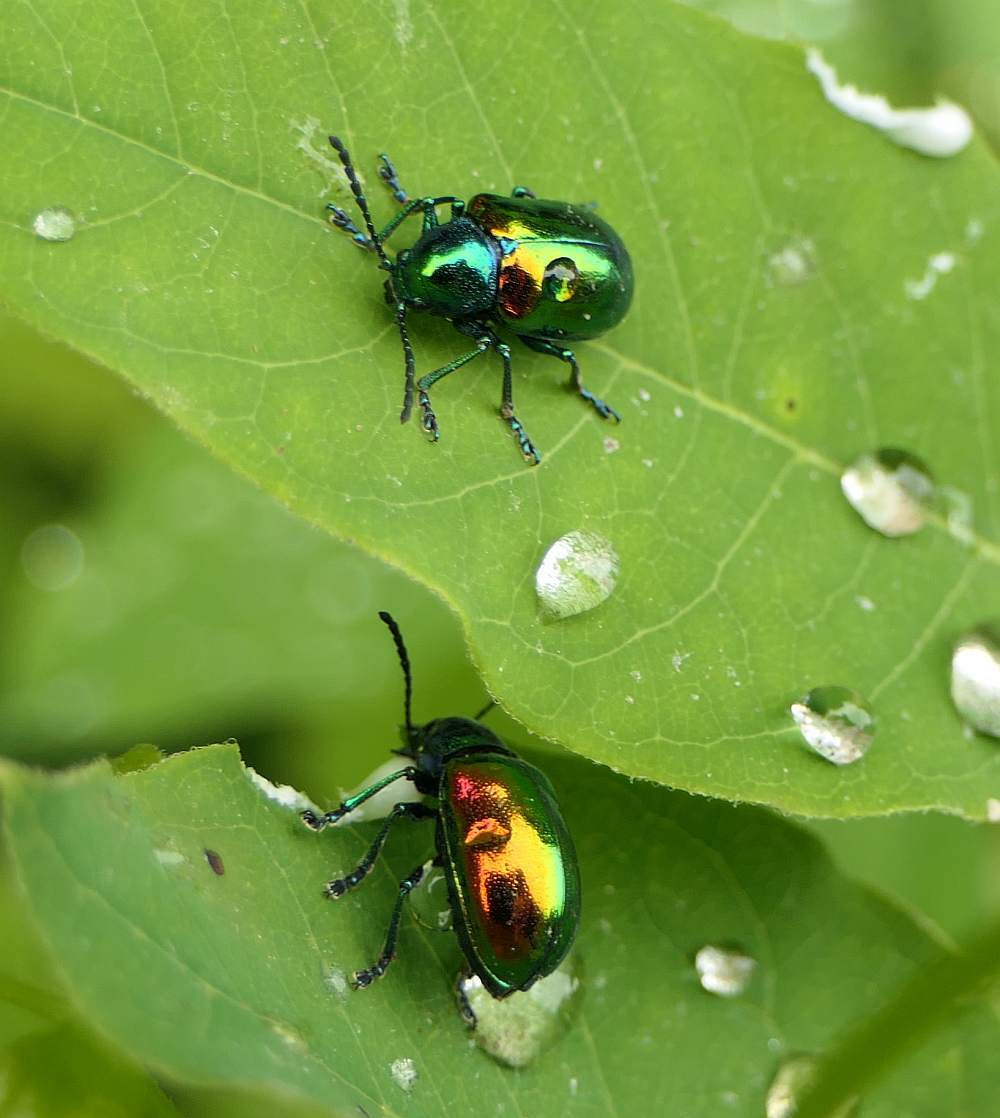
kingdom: Animalia
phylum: Arthropoda
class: Insecta
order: Coleoptera
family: Chrysomelidae
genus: Chrysochus
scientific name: Chrysochus auratus
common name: Dogbane leaf beetle
